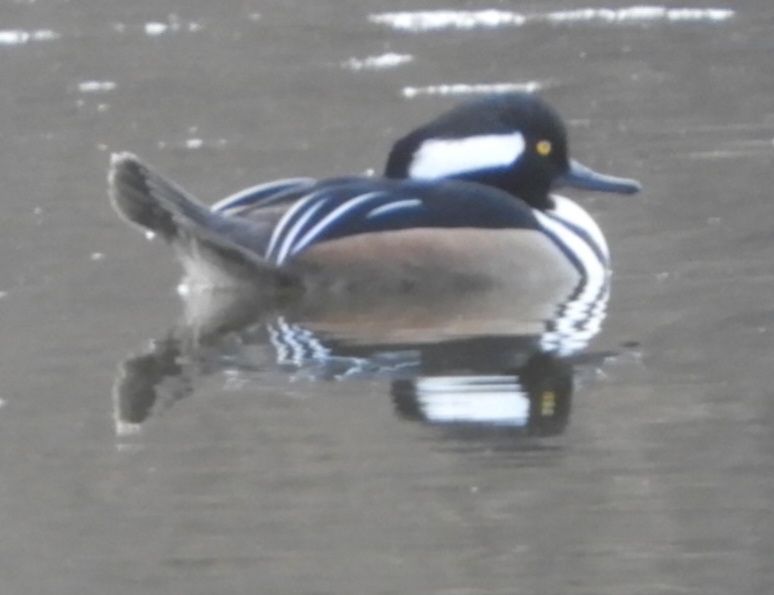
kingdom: Animalia
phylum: Chordata
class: Aves
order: Anseriformes
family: Anatidae
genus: Lophodytes
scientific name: Lophodytes cucullatus
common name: Hooded merganser
